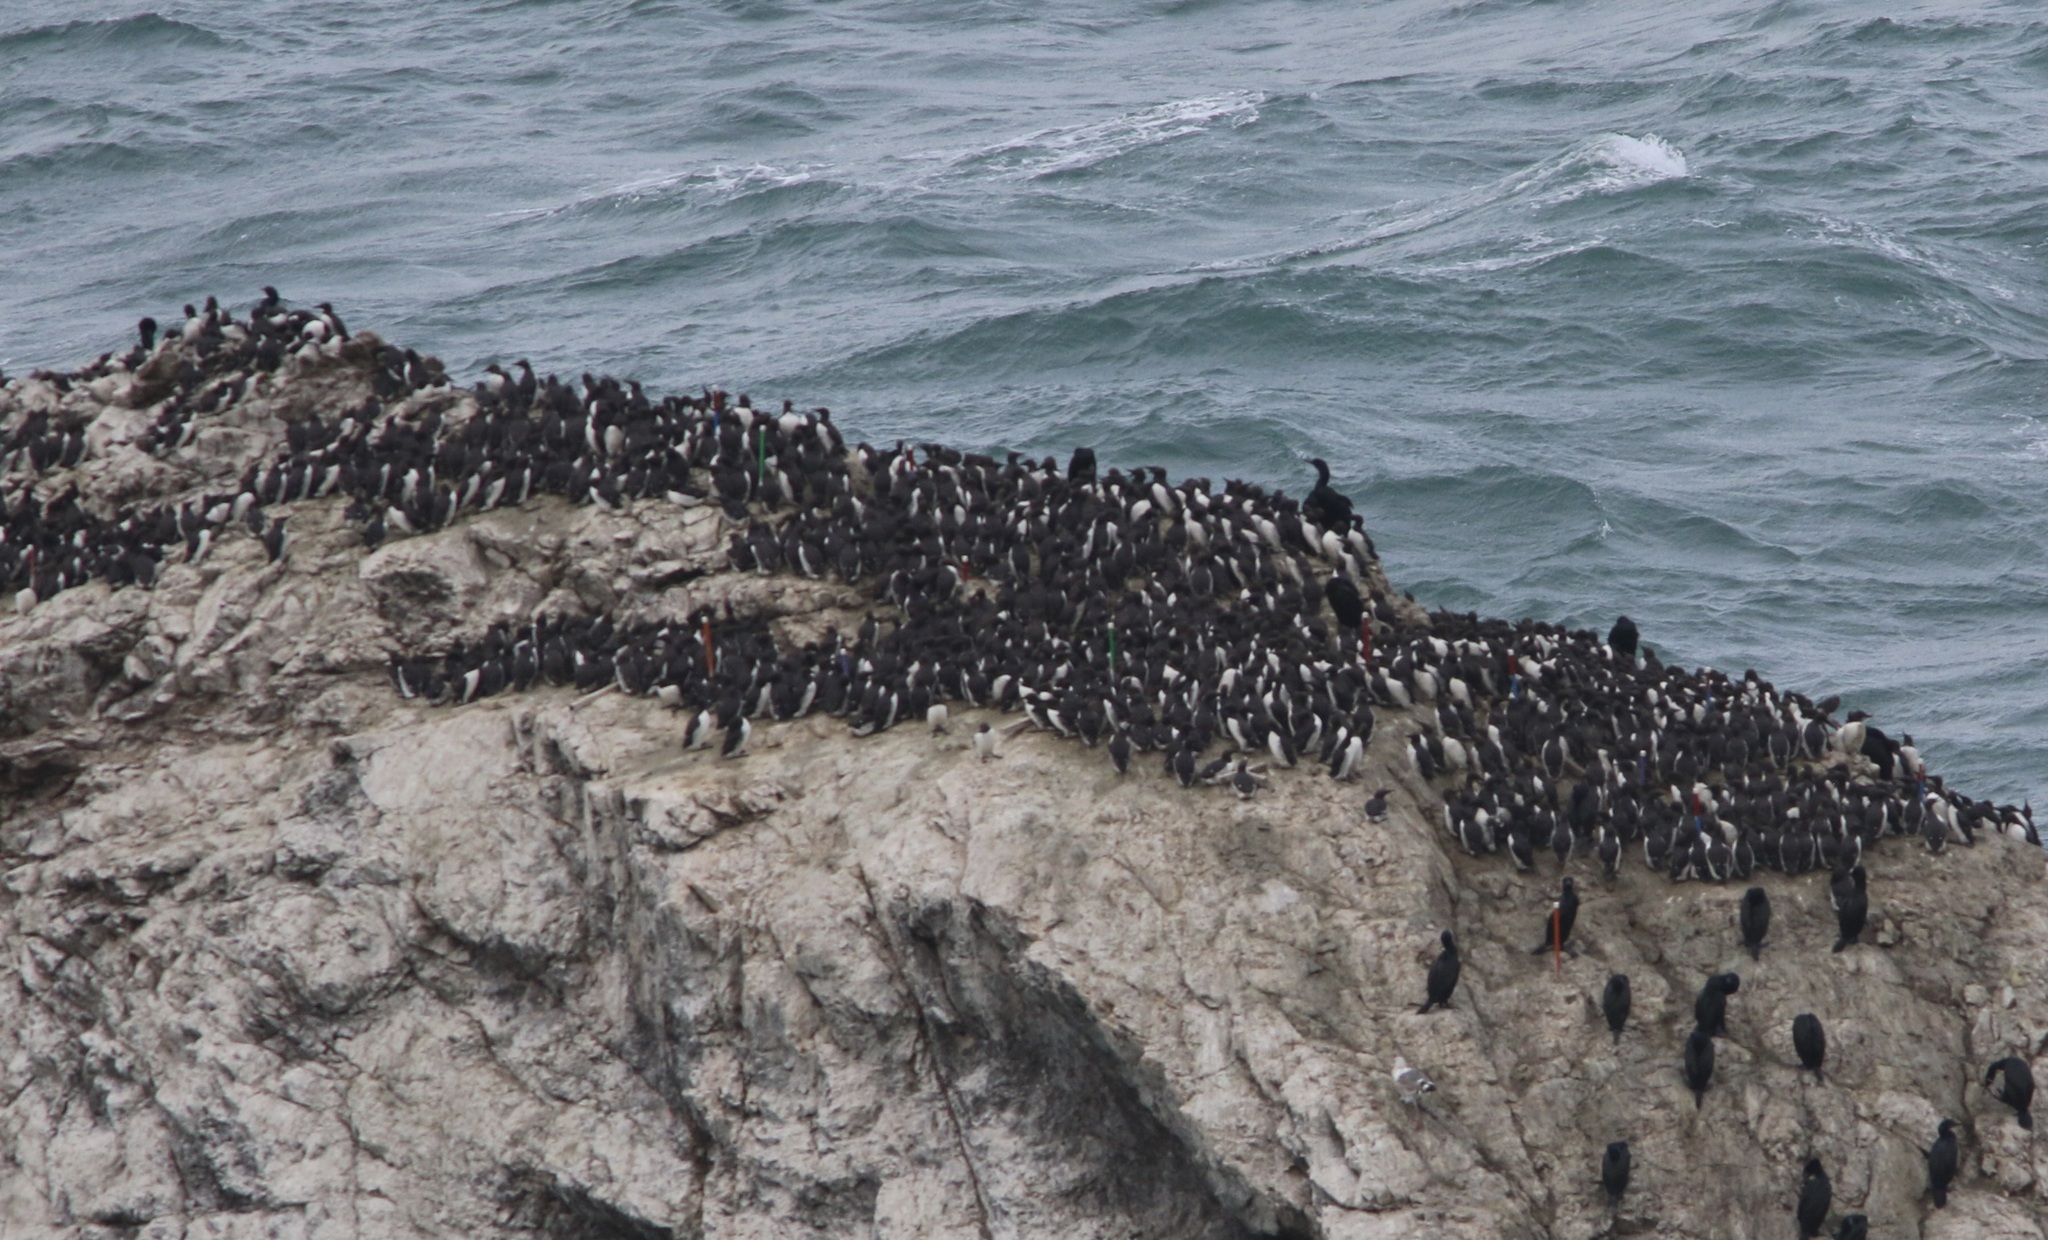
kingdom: Animalia
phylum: Chordata
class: Aves
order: Charadriiformes
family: Alcidae
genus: Uria
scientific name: Uria aalge
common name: Common murre
